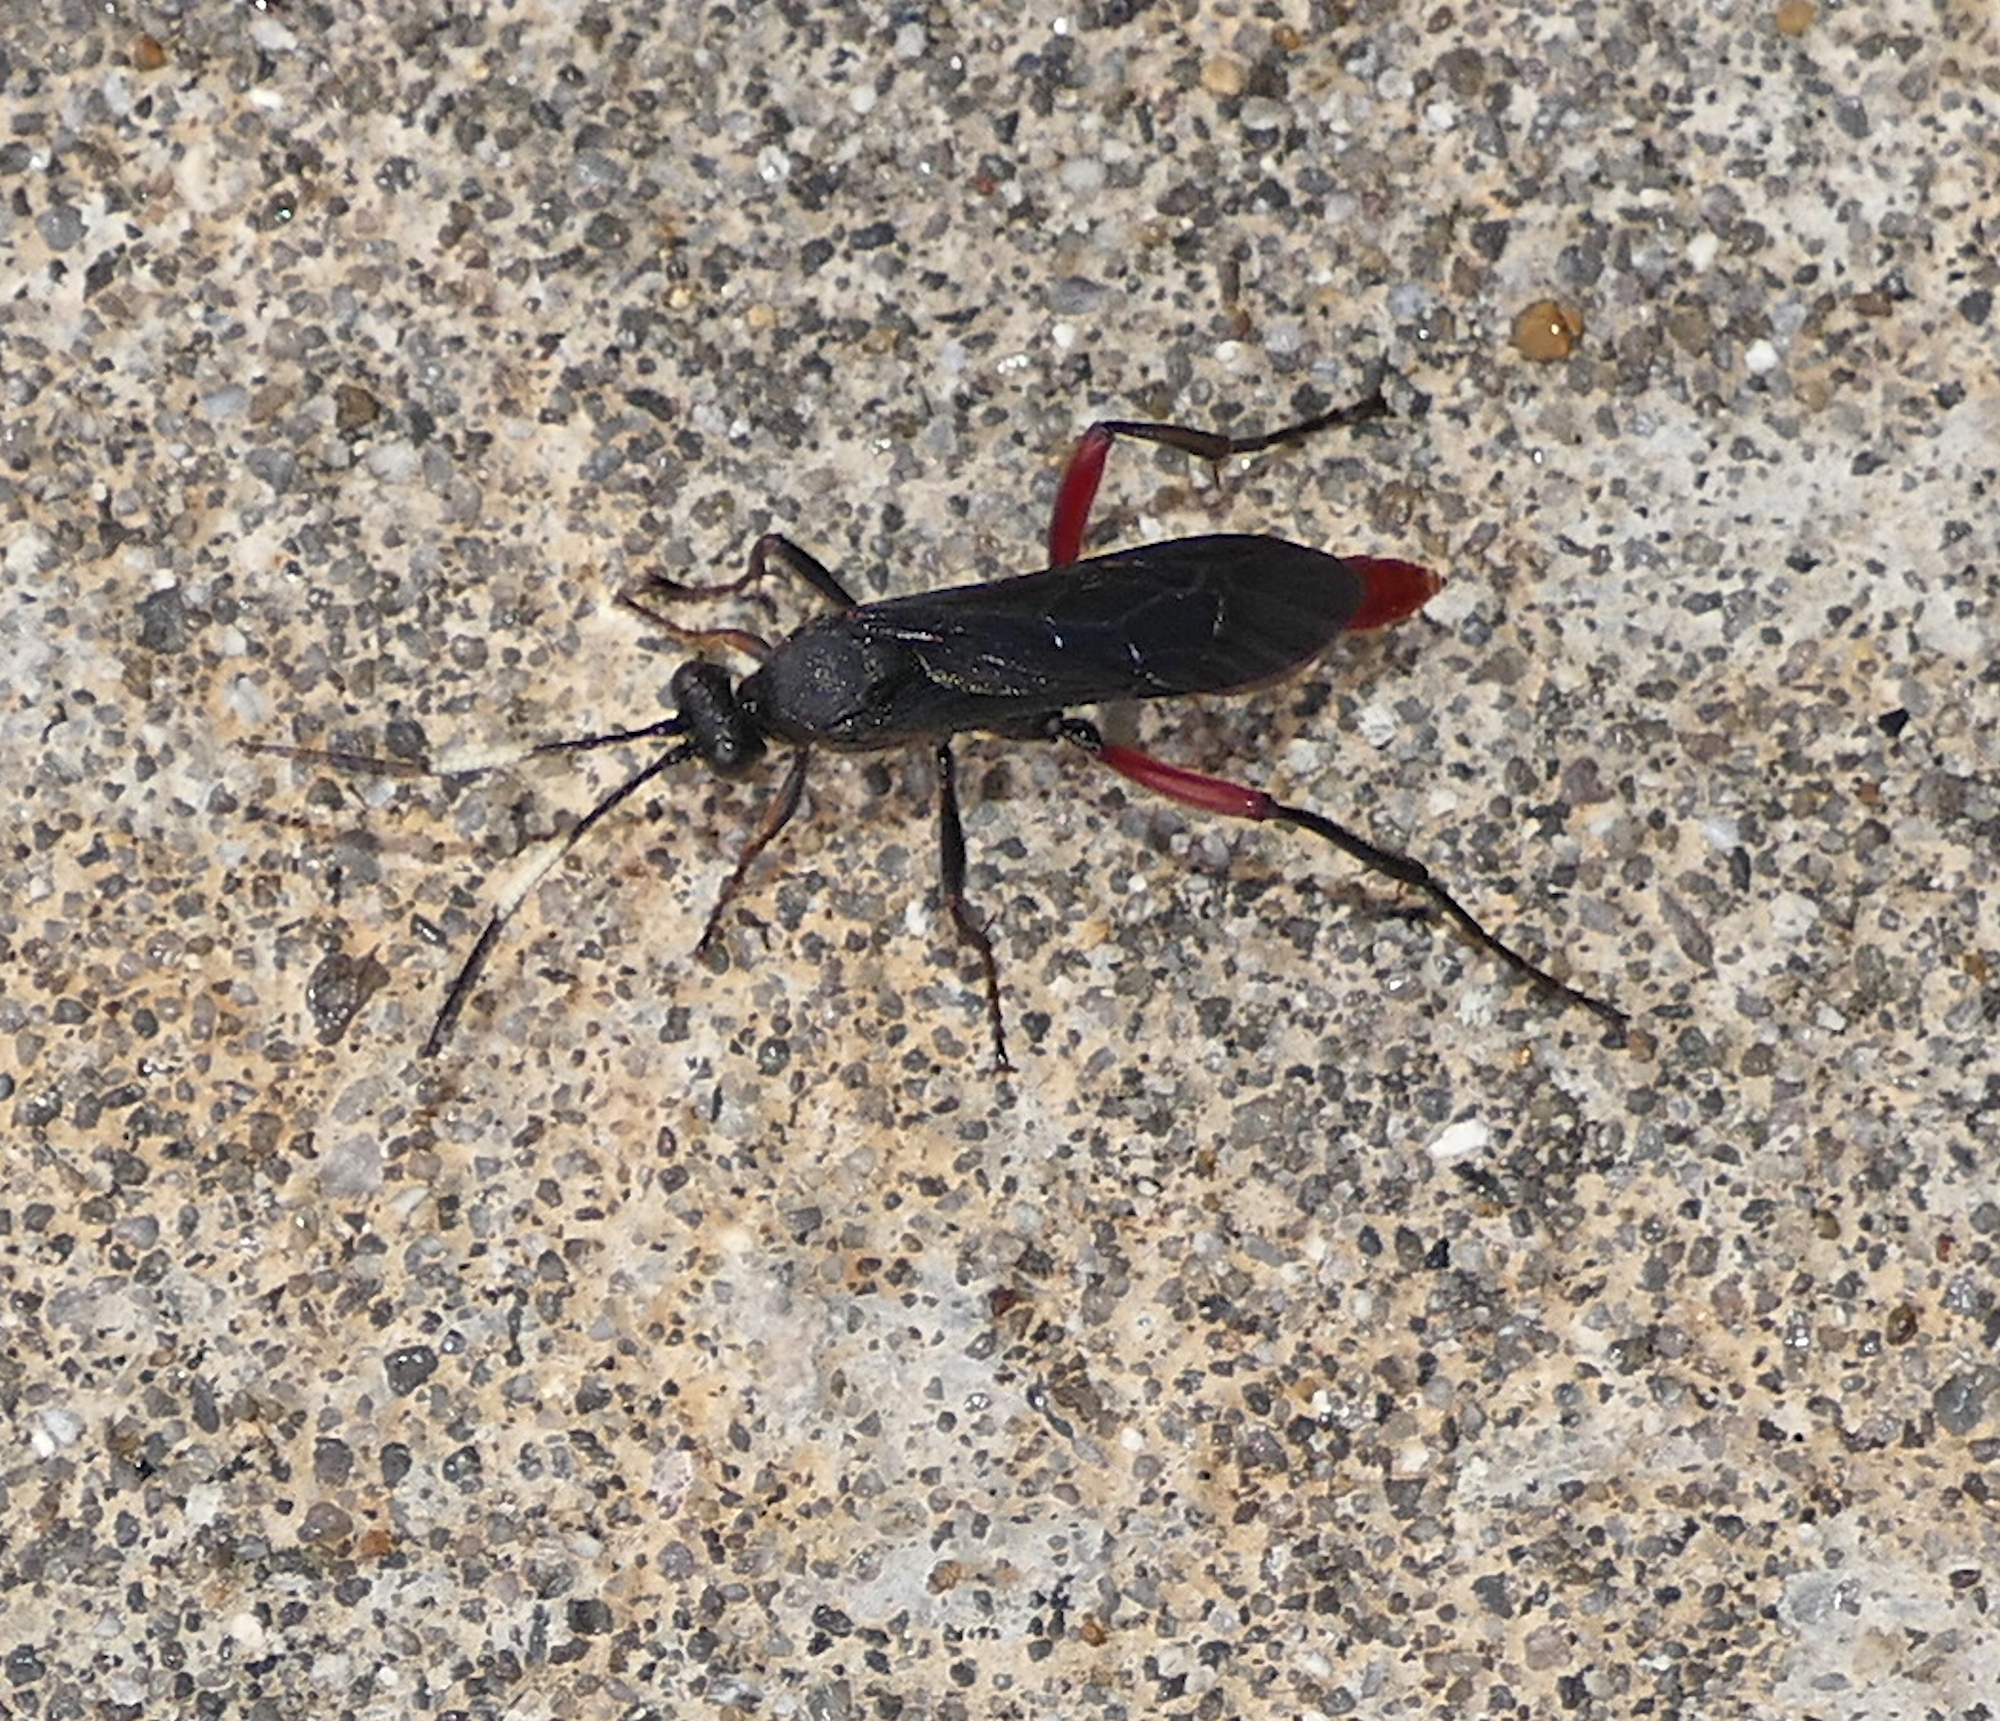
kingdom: Animalia
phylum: Arthropoda
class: Insecta
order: Hymenoptera
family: Ichneumonidae
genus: Limonethe
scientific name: Limonethe maurator
